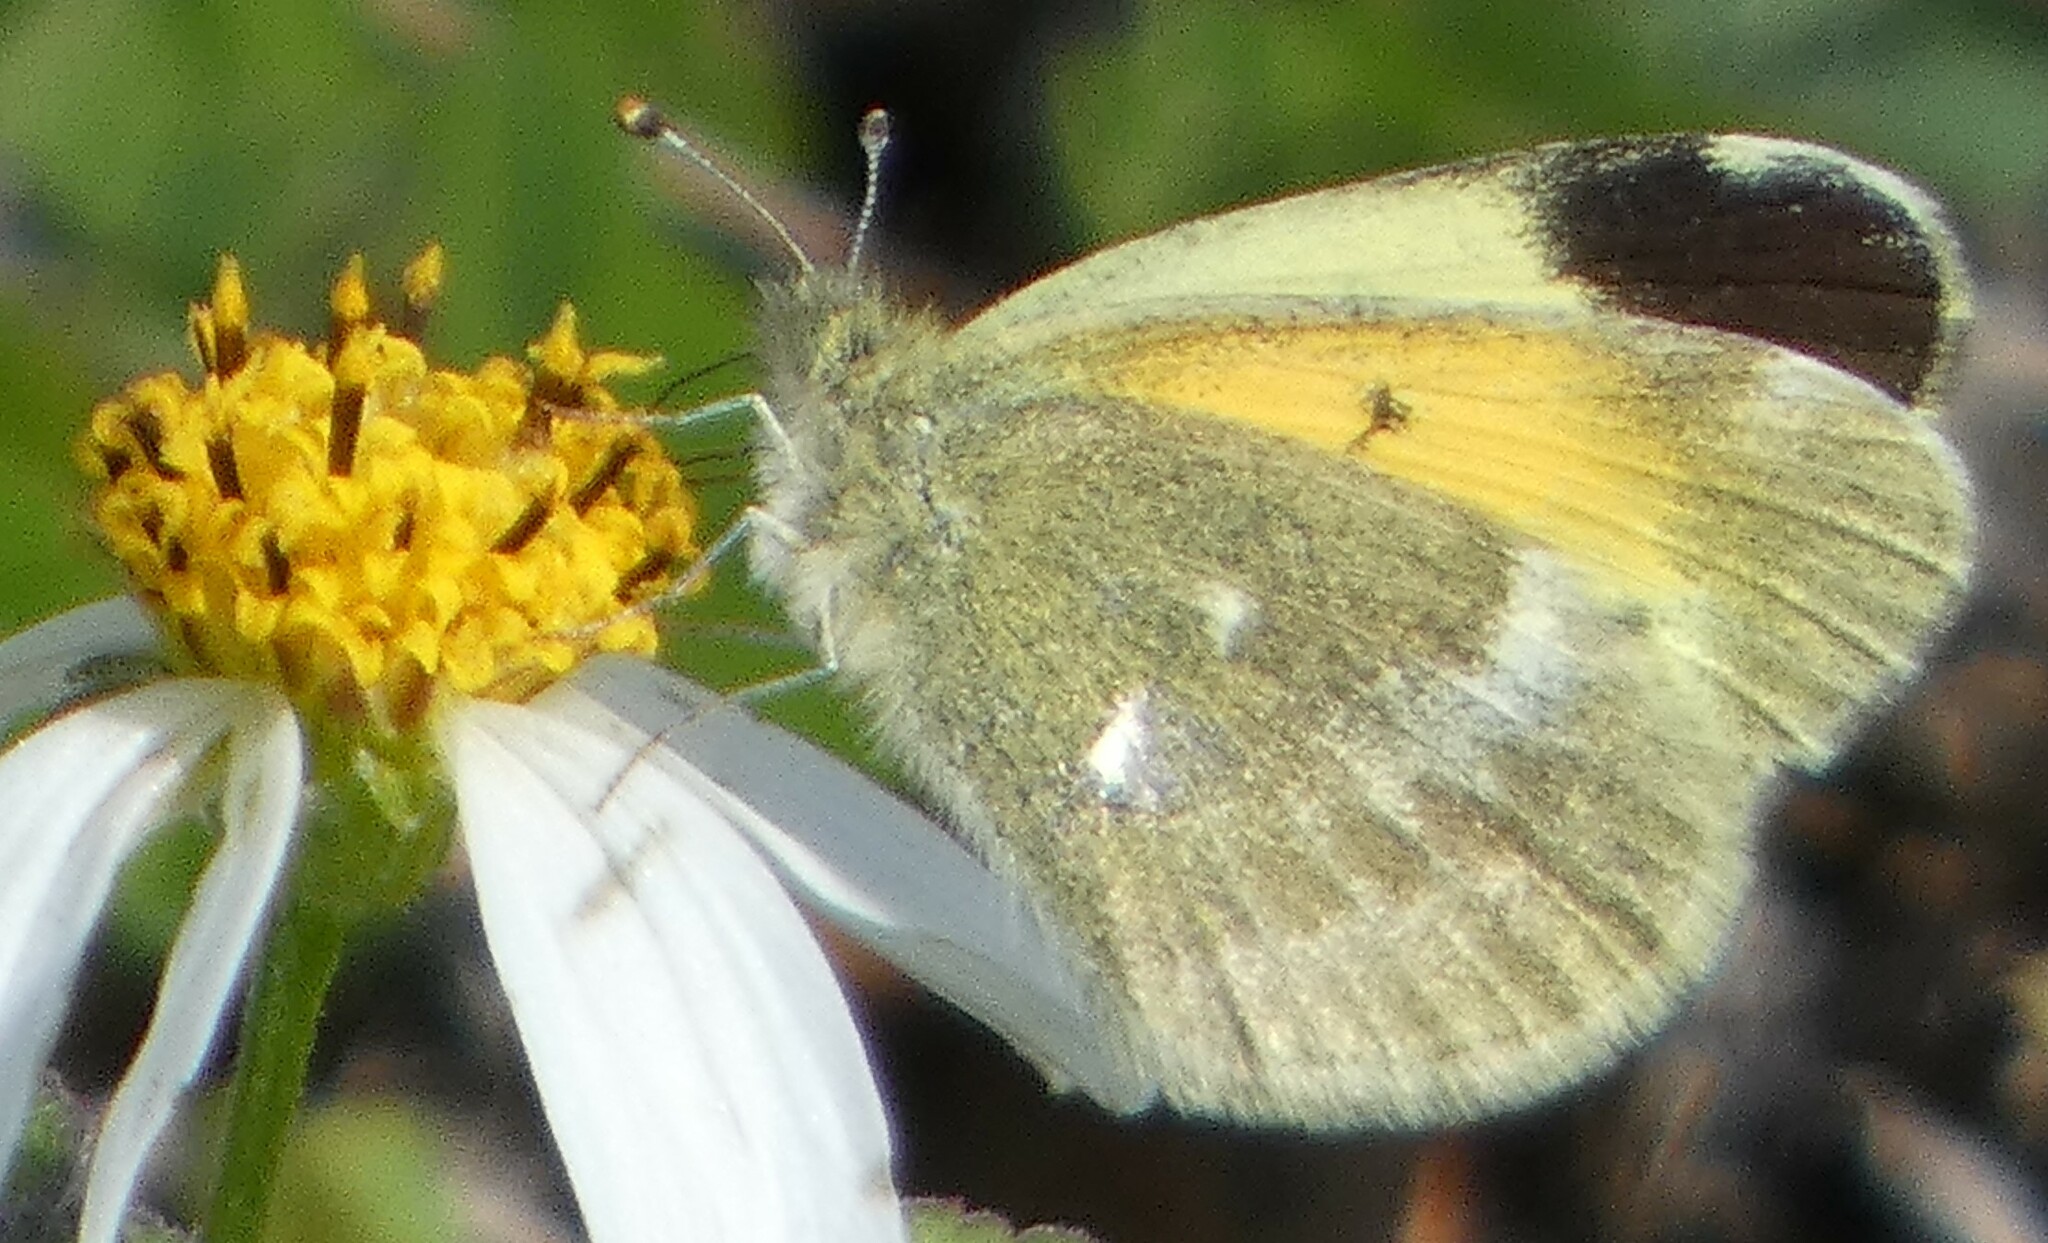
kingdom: Animalia
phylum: Arthropoda
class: Insecta
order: Lepidoptera
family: Pieridae
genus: Nathalis
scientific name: Nathalis iole
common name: Dainty sulphur
